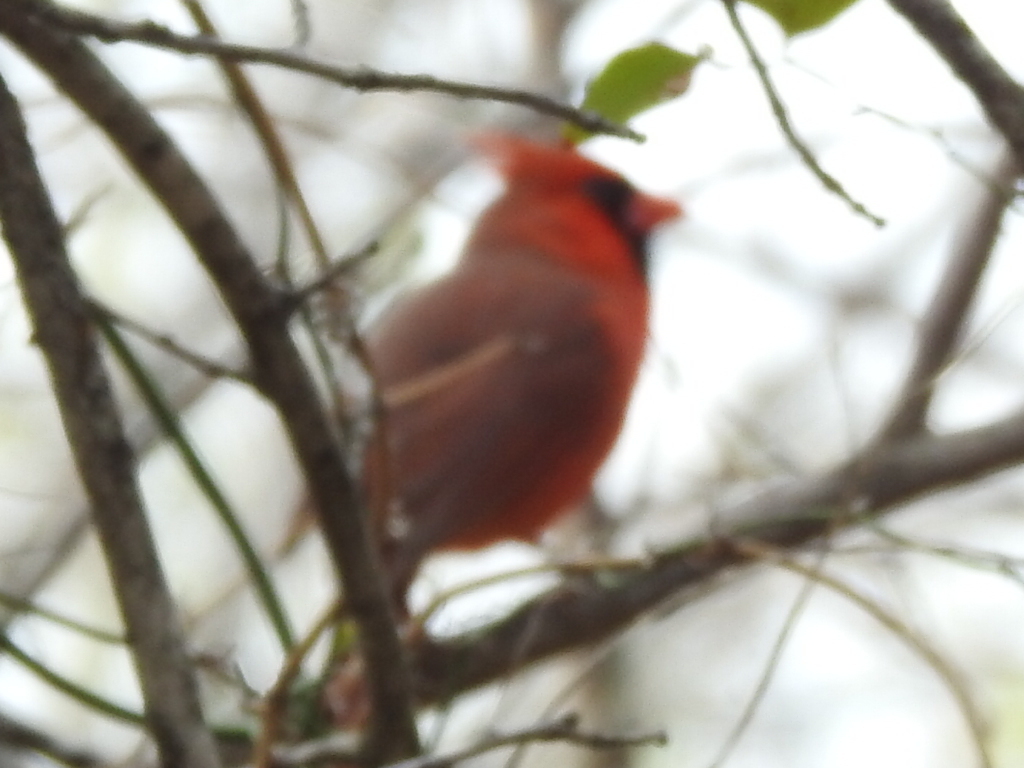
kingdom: Animalia
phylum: Chordata
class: Aves
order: Passeriformes
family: Cardinalidae
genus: Cardinalis
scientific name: Cardinalis cardinalis
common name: Northern cardinal
